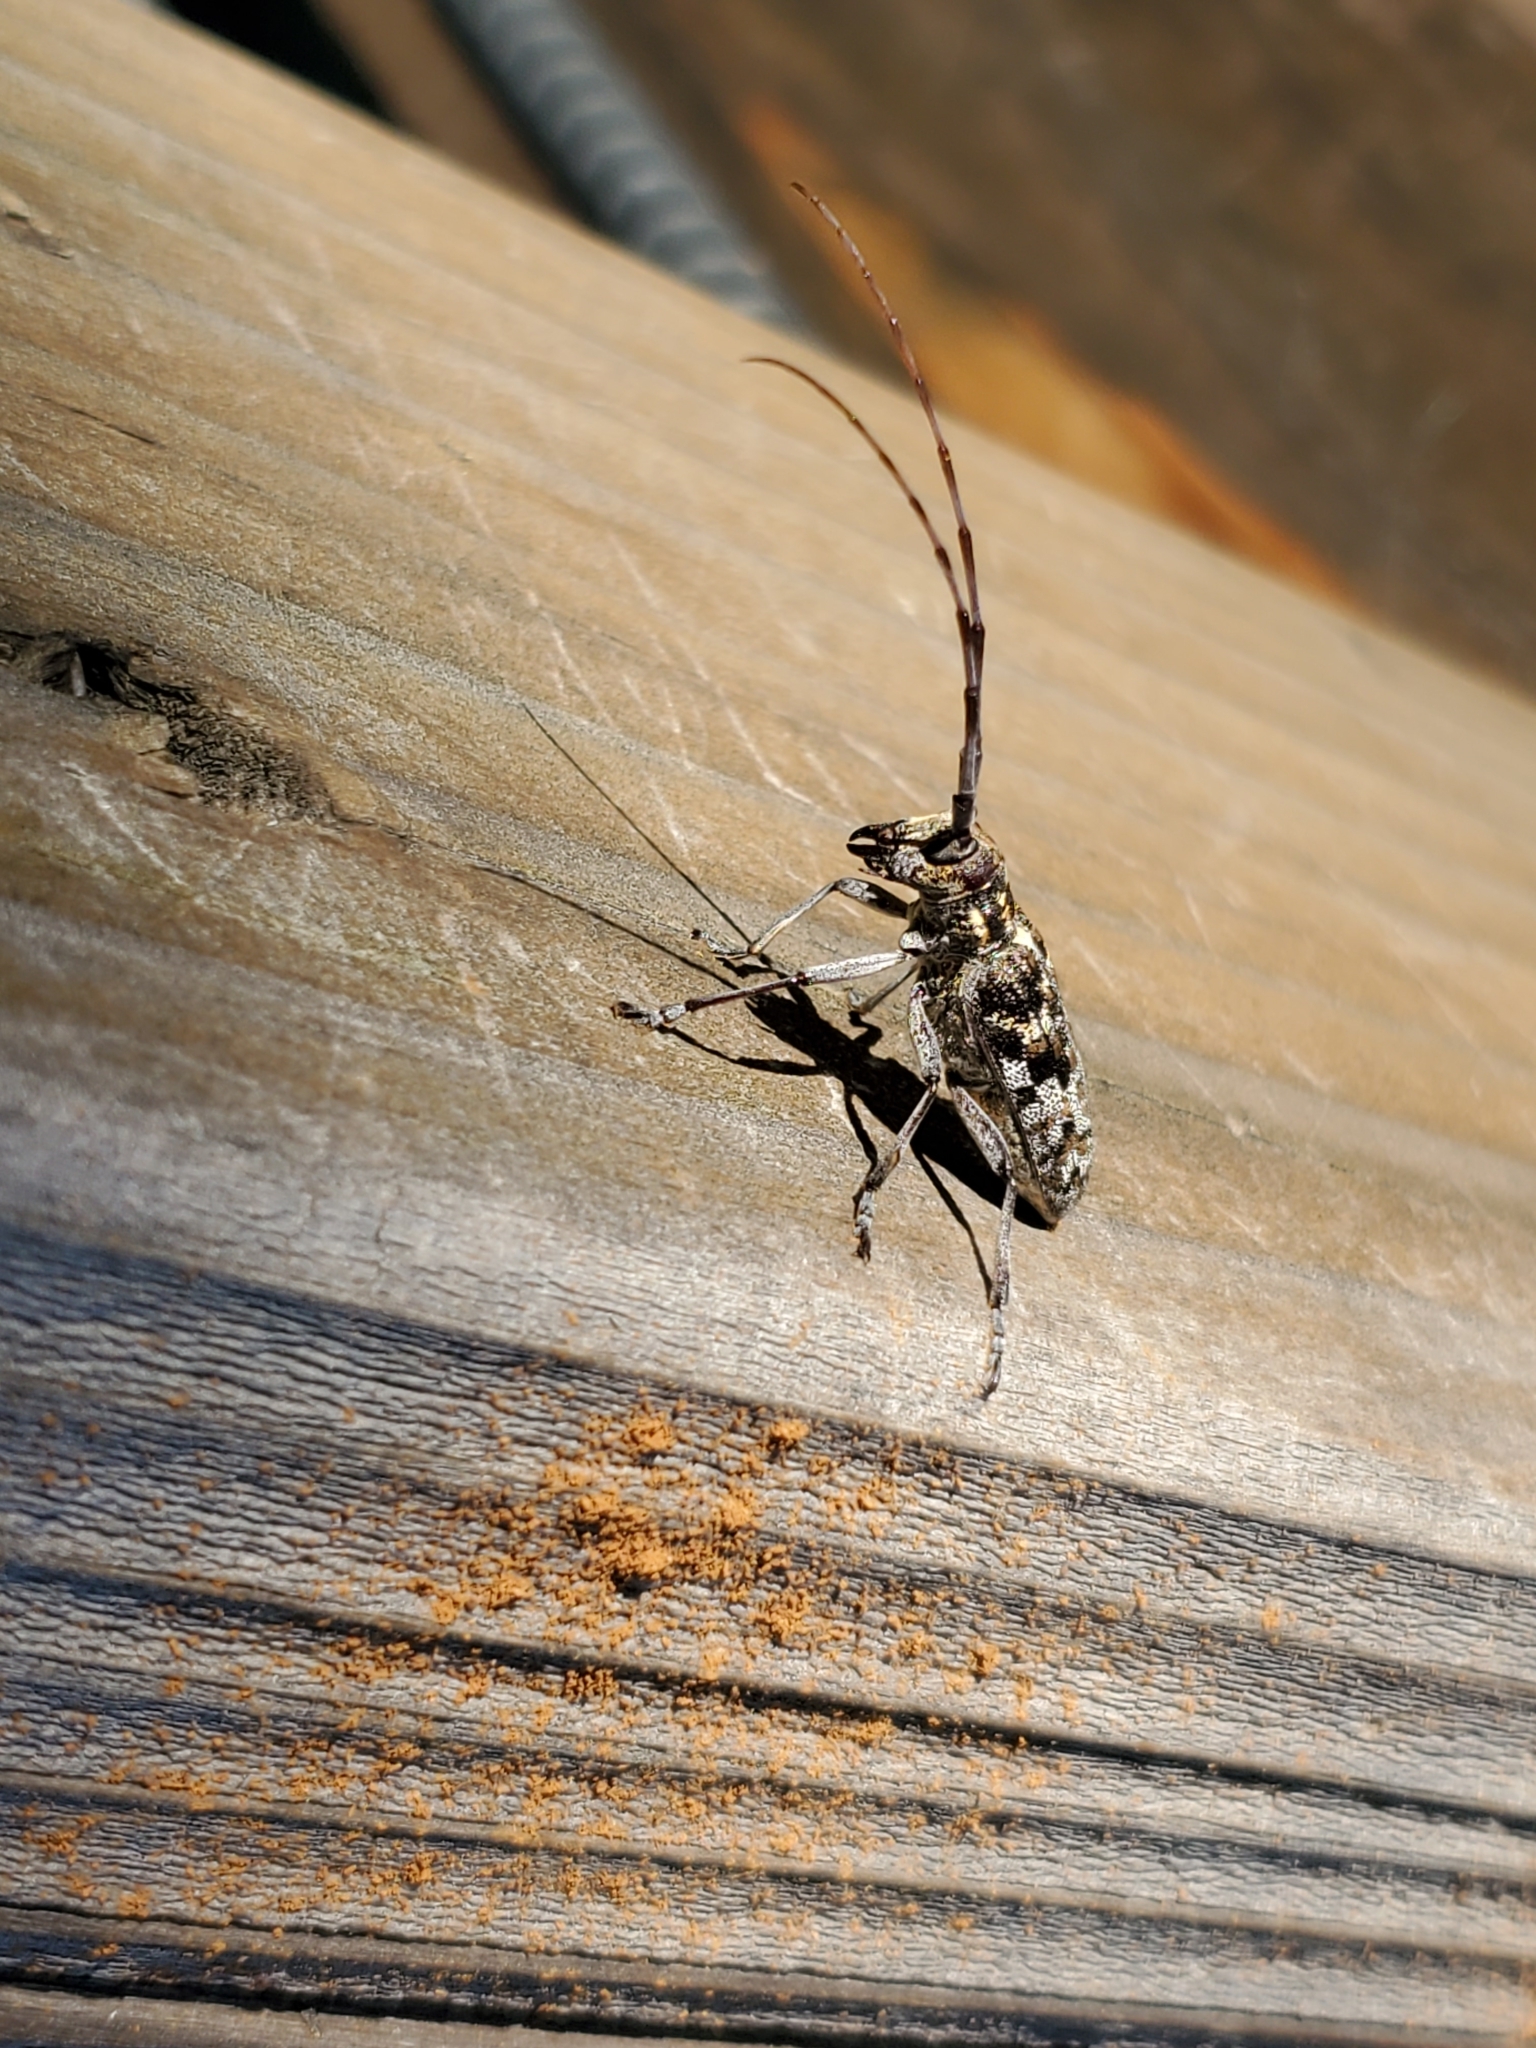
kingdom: Animalia
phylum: Arthropoda
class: Insecta
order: Coleoptera
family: Cerambycidae
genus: Monochamus
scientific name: Monochamus clamator
